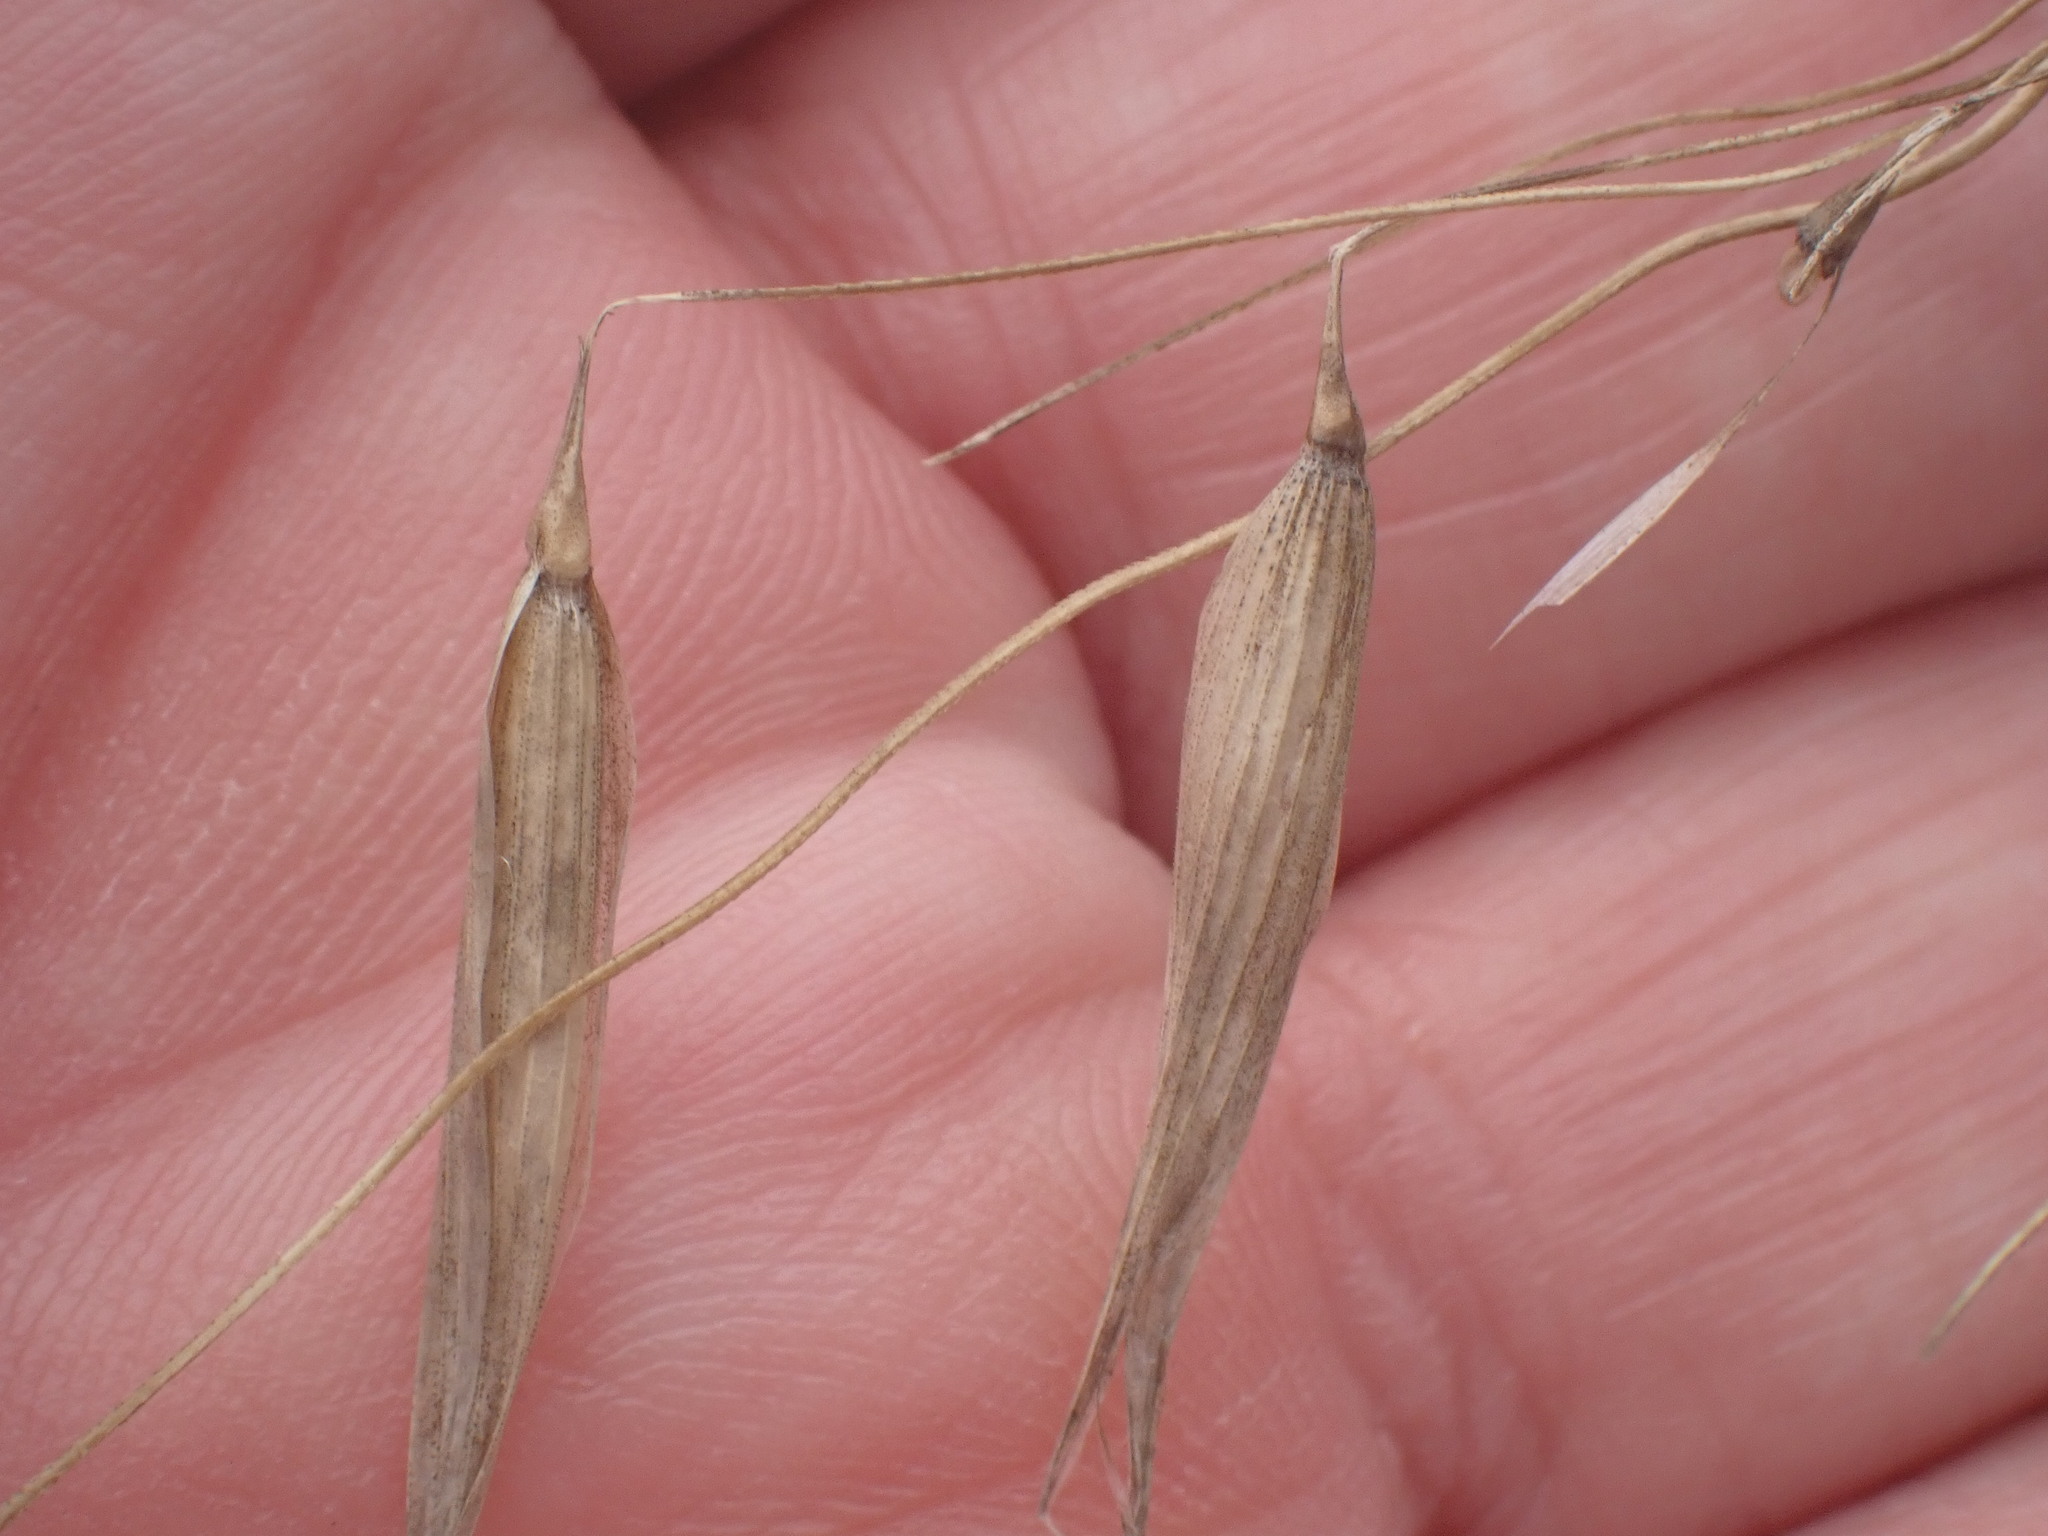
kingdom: Plantae
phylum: Tracheophyta
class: Liliopsida
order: Poales
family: Poaceae
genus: Avena
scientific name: Avena fatua
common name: Wild oat
